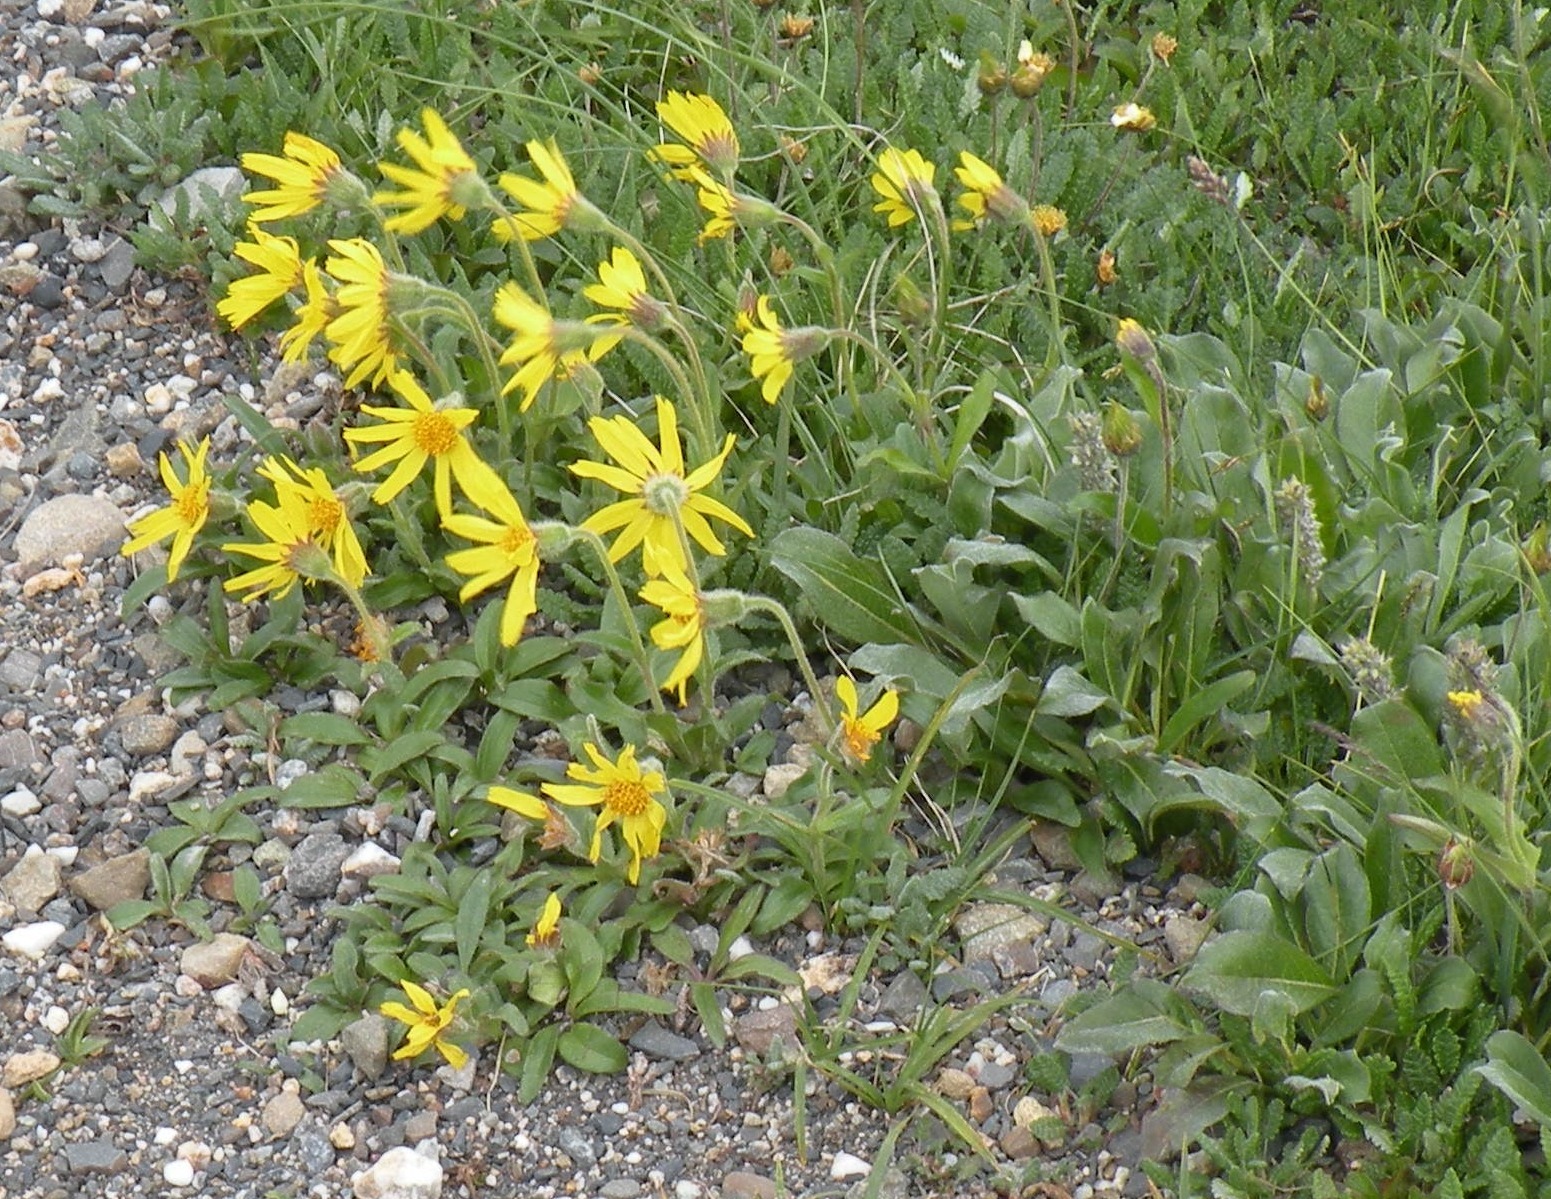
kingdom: Plantae
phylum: Tracheophyta
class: Magnoliopsida
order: Asterales
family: Asteraceae
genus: Arnica
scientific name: Arnica griscomii
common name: Snow arnica
